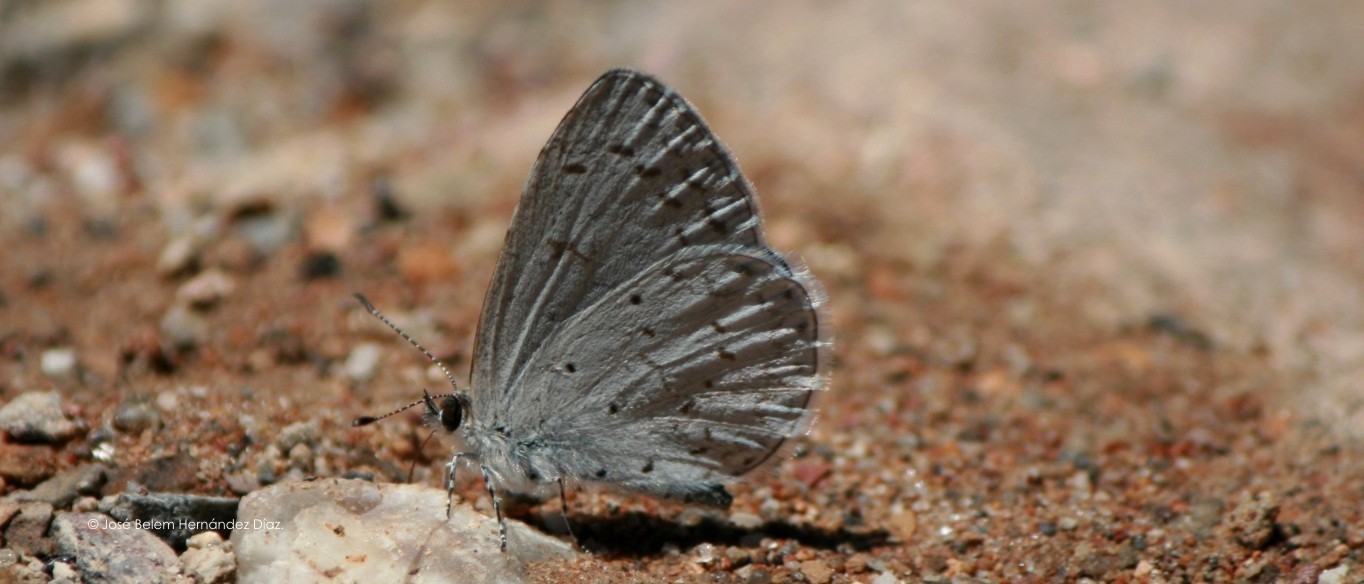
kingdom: Animalia
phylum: Arthropoda
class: Insecta
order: Lepidoptera
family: Lycaenidae
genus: Celastrina
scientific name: Celastrina ladon
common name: Spring azure
